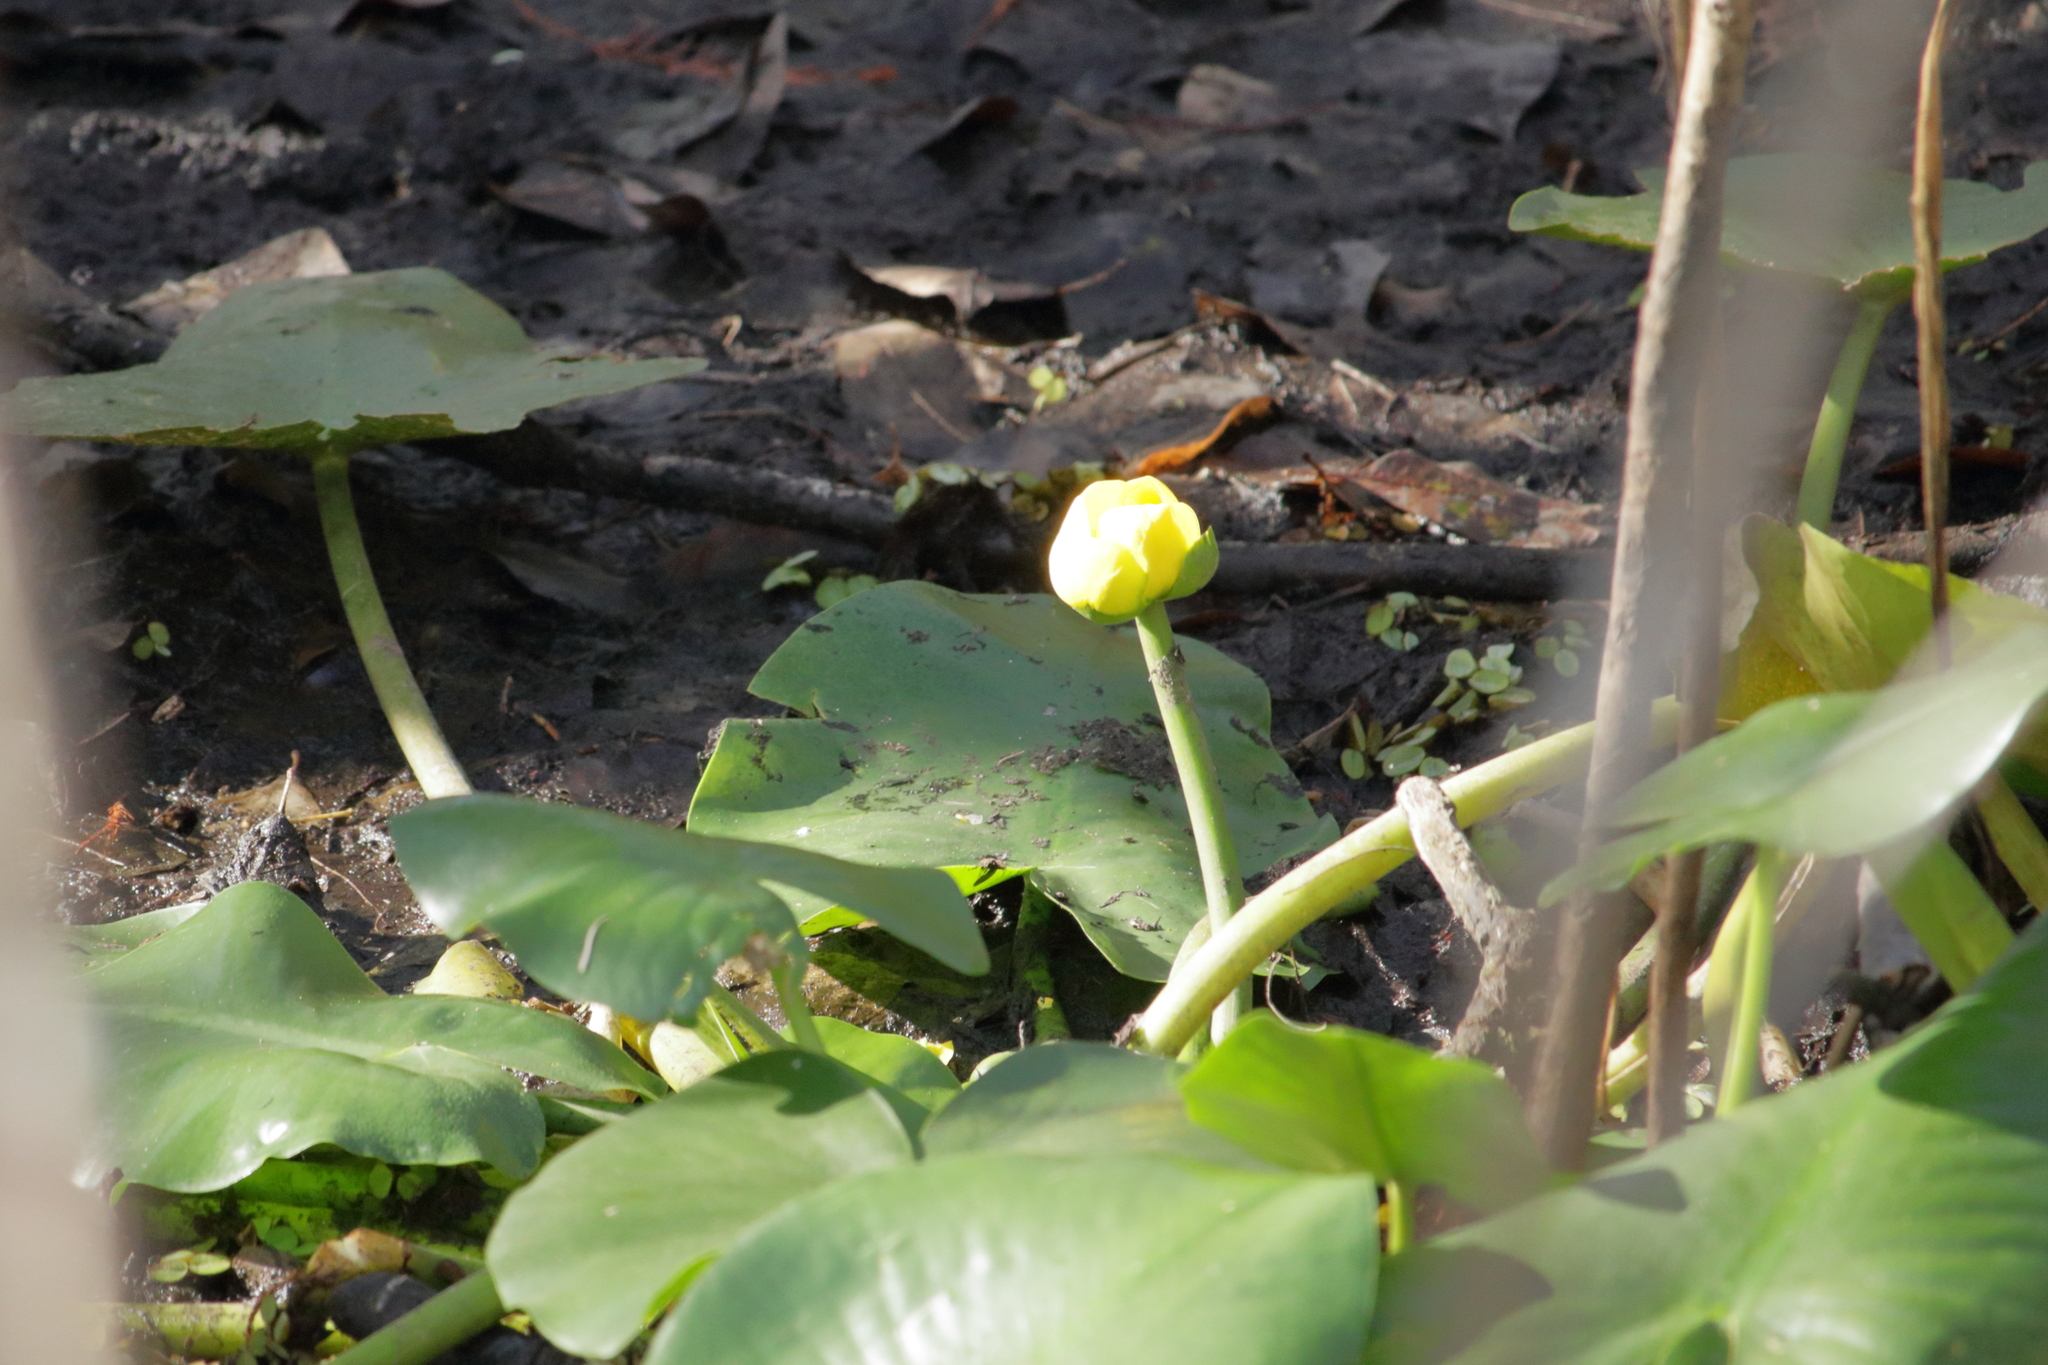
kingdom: Plantae
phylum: Tracheophyta
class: Magnoliopsida
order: Nymphaeales
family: Nymphaeaceae
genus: Nuphar
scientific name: Nuphar advena
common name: Spatter-dock
